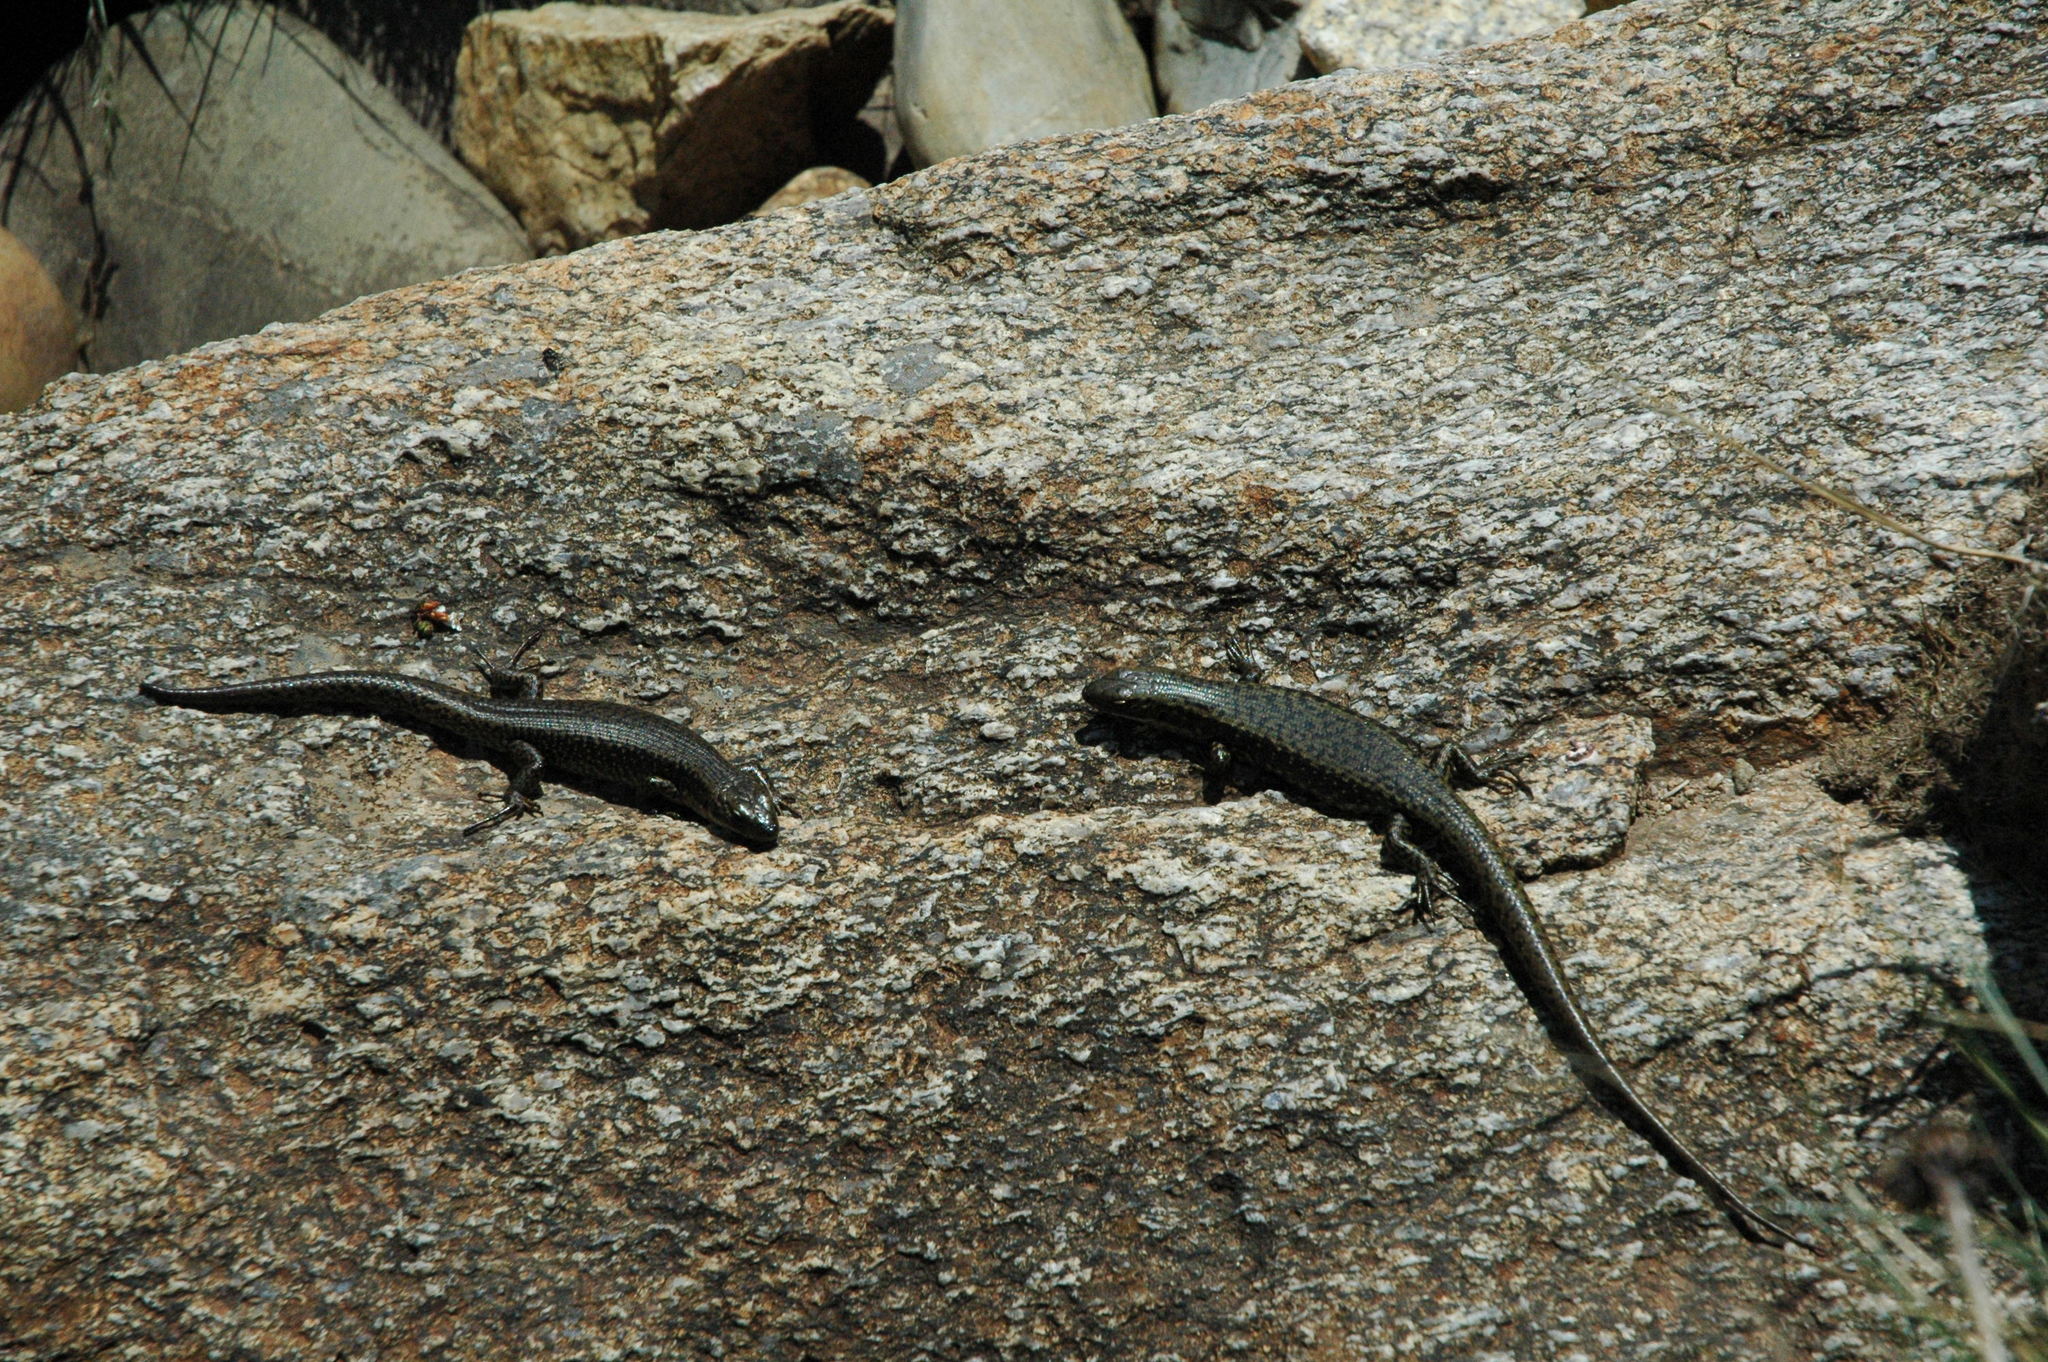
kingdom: Animalia
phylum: Chordata
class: Squamata
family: Scincidae
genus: Eulamprus
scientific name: Eulamprus tympanum
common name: Cool-temperate water-skink
